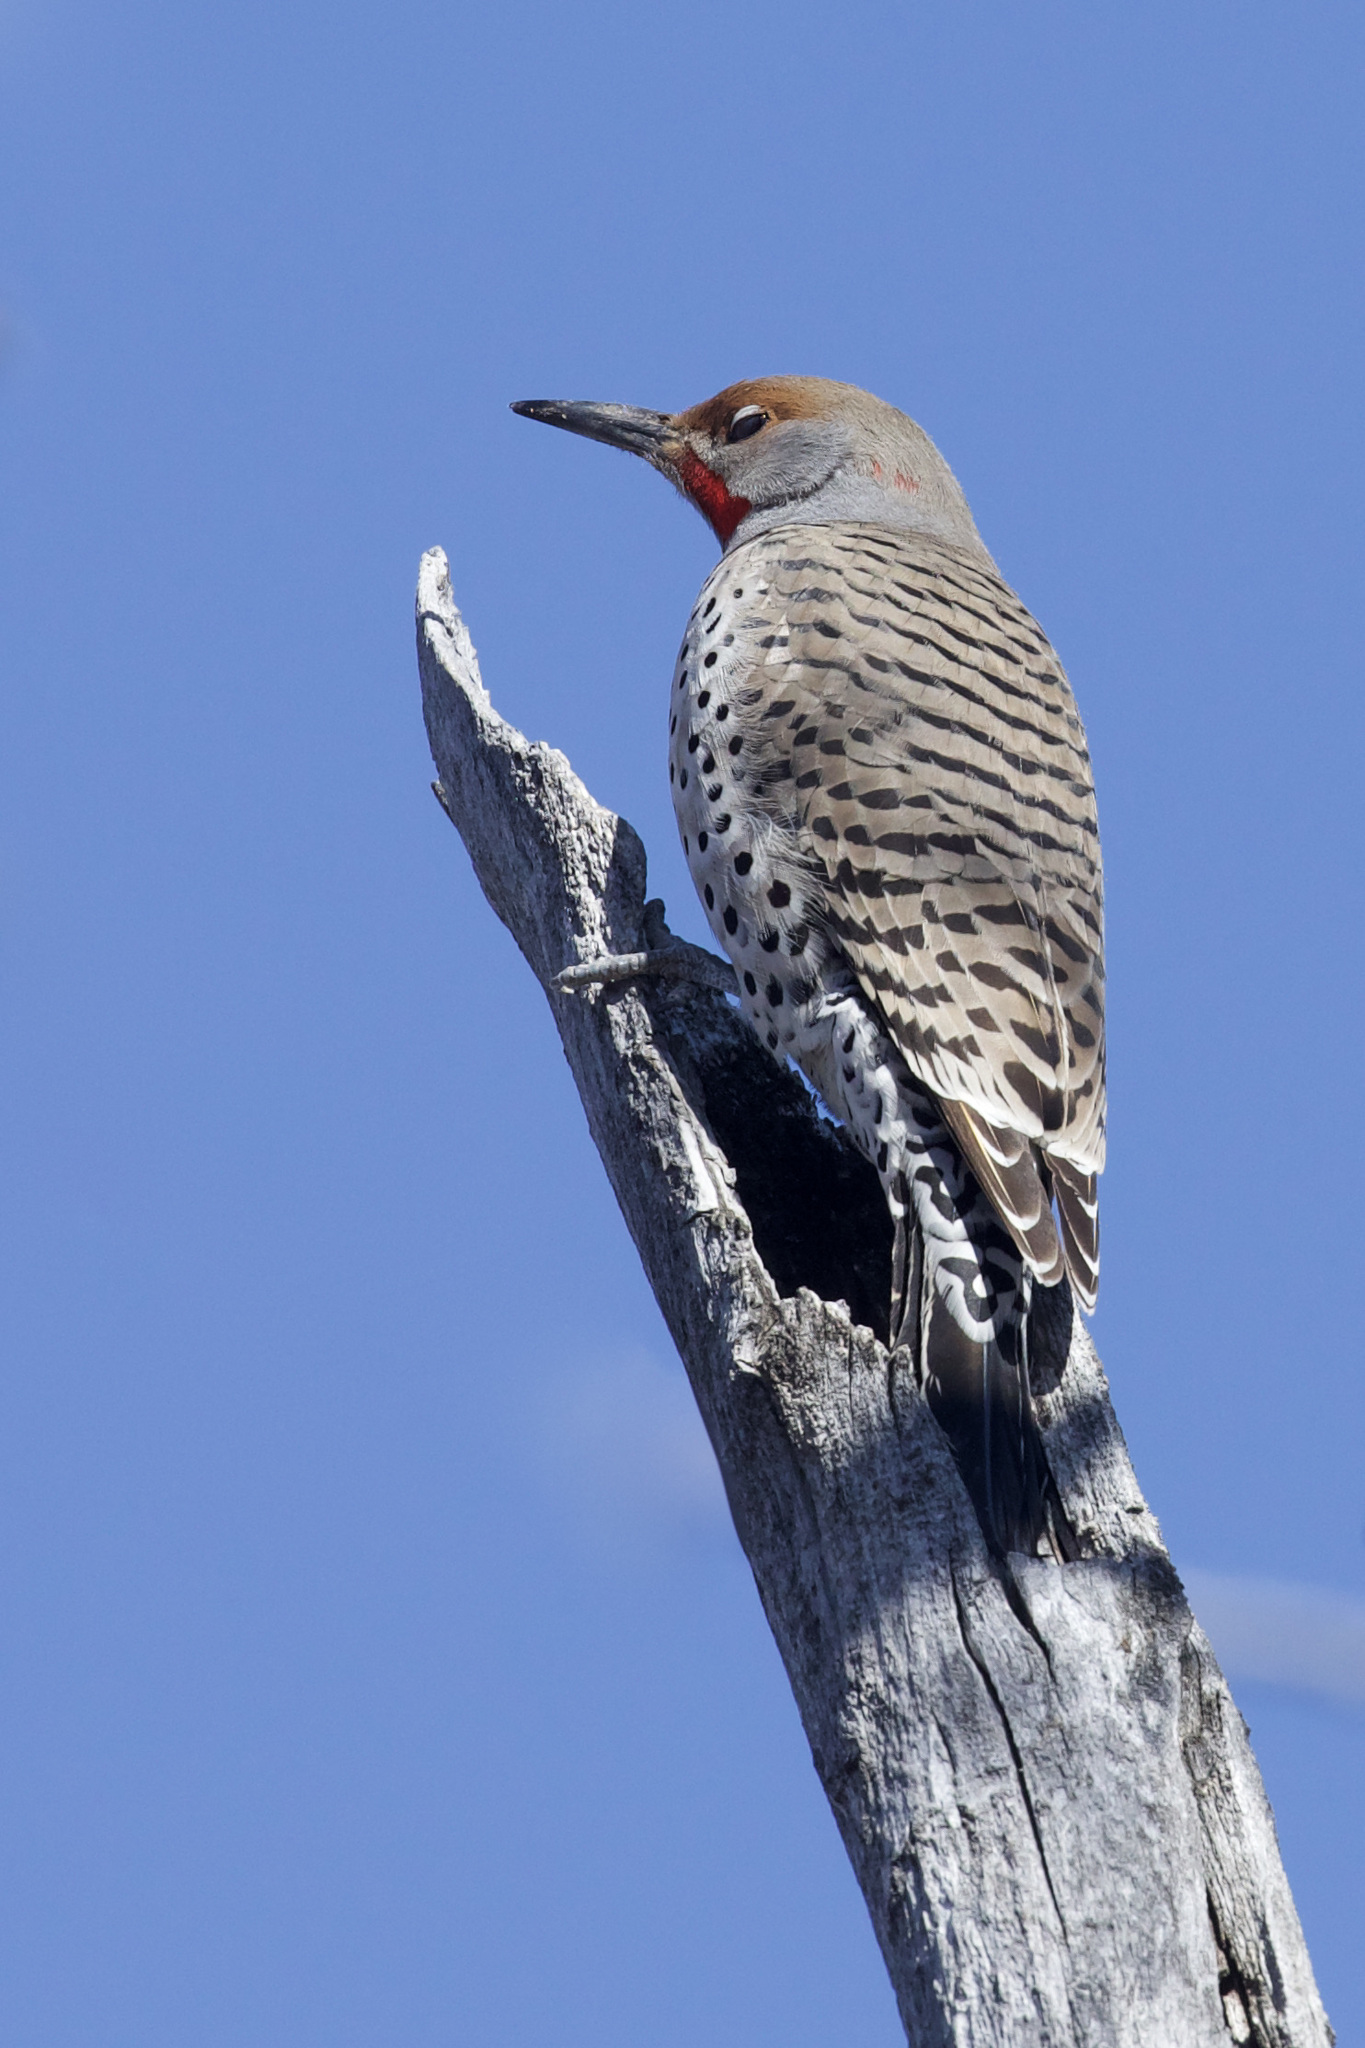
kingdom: Animalia
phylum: Chordata
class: Aves
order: Piciformes
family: Picidae
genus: Colaptes
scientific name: Colaptes auratus
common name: Northern flicker
